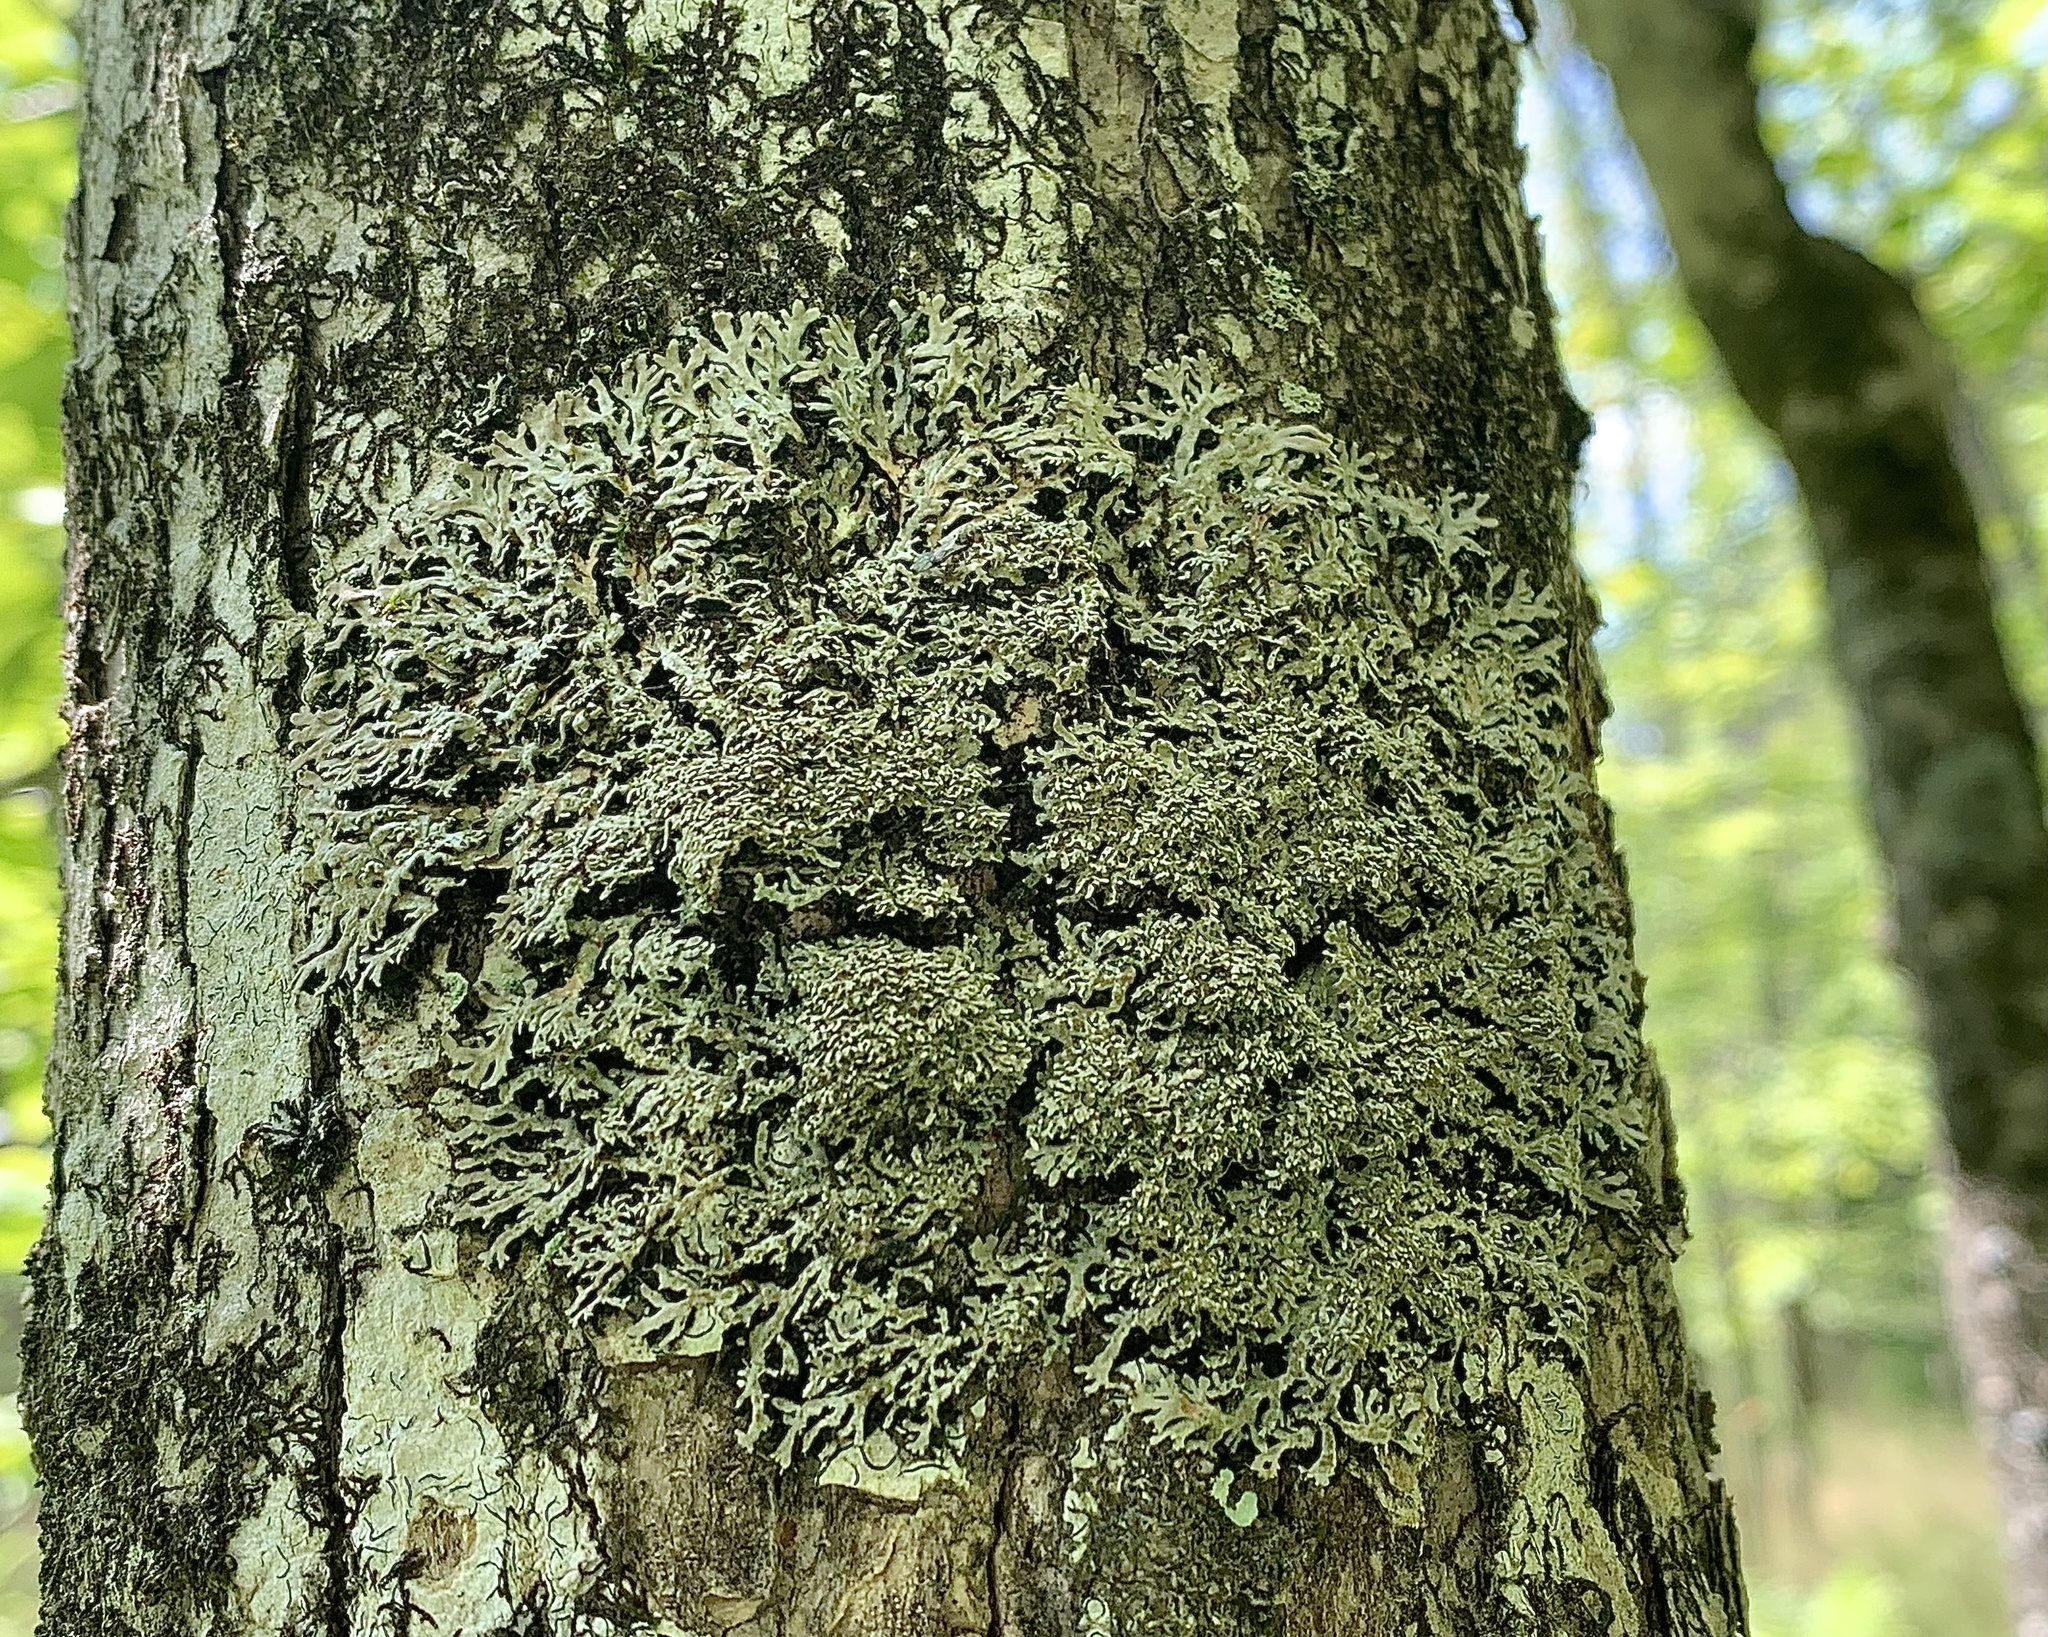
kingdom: Fungi
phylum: Ascomycota
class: Lecanoromycetes
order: Caliciales
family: Physciaceae
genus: Physconia
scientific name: Physconia subpallida
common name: Pale-belly frost lichen
